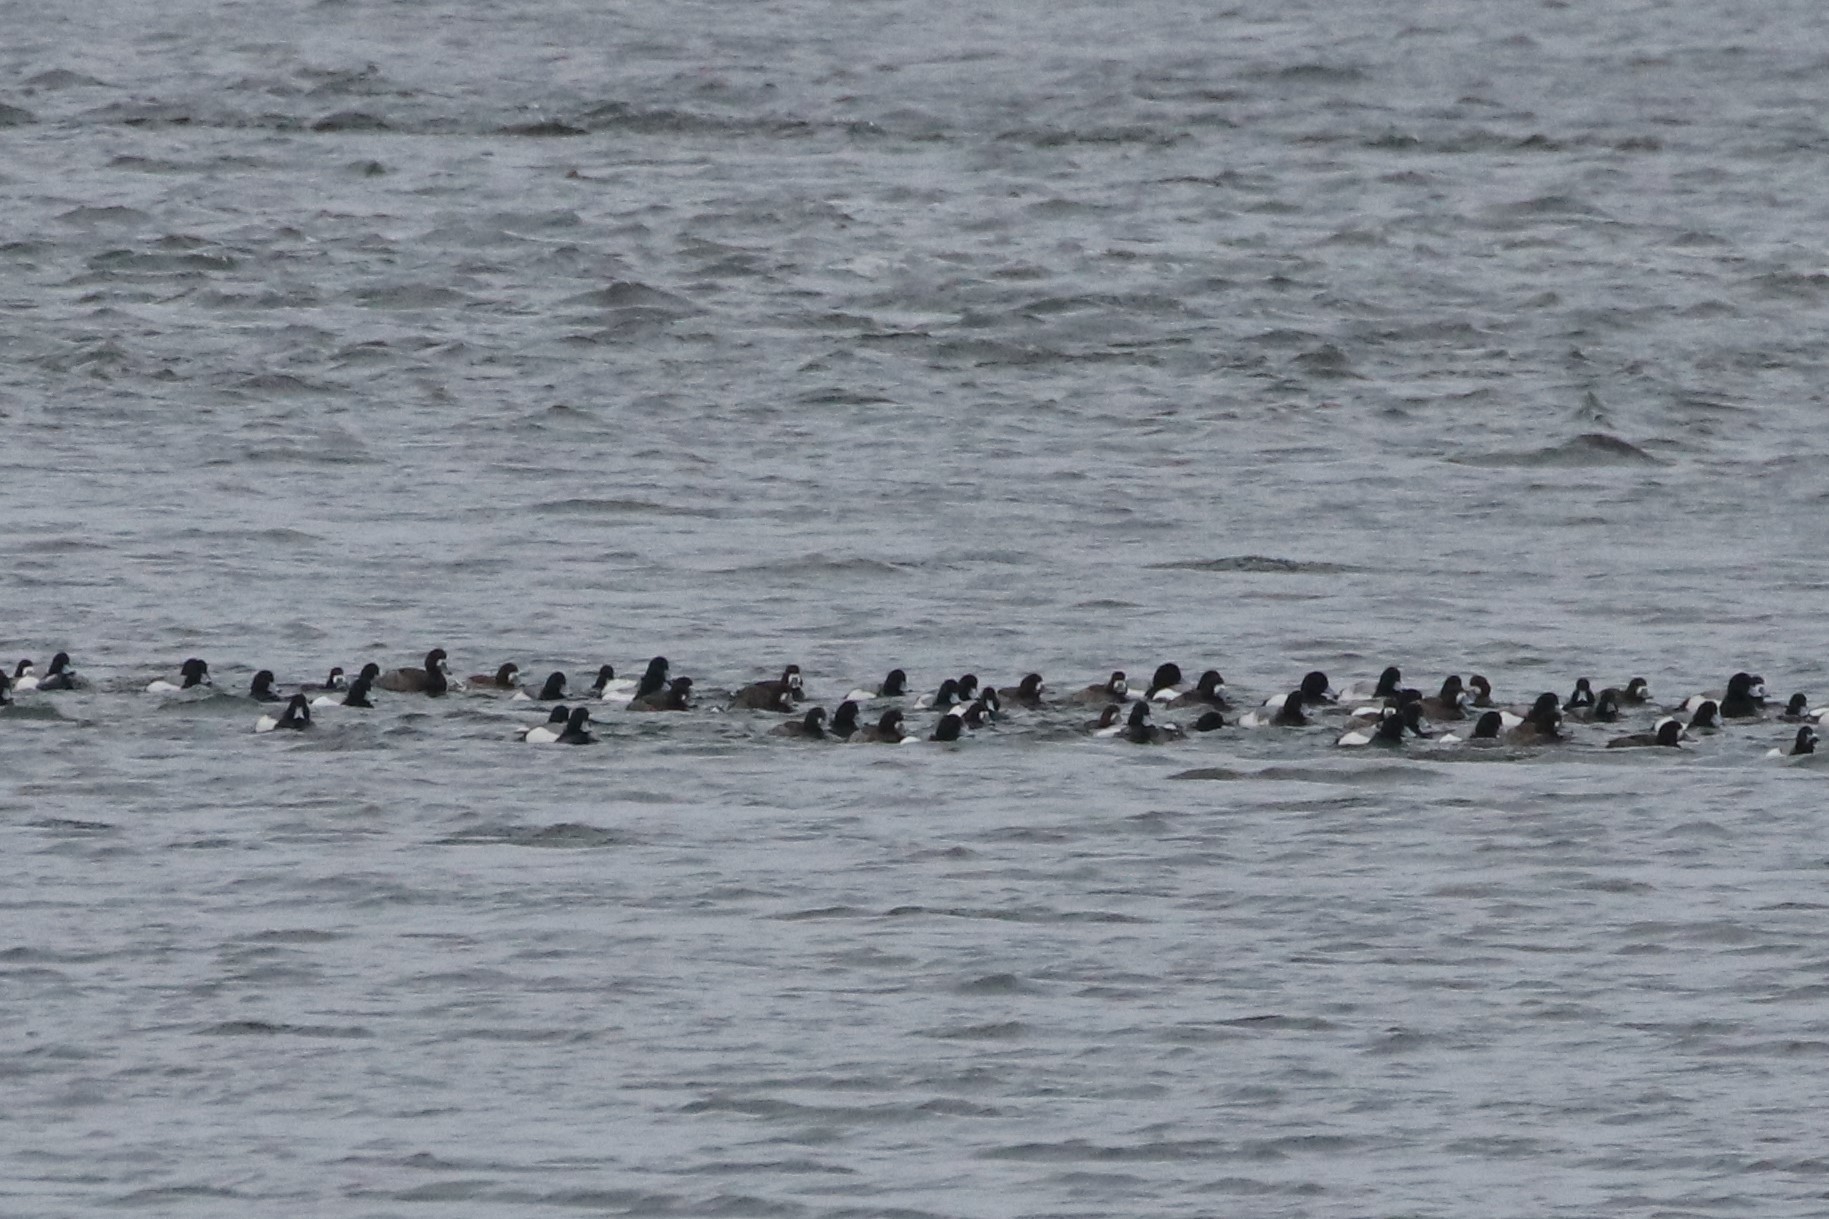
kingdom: Animalia
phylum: Chordata
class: Aves
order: Anseriformes
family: Anatidae
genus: Aythya
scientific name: Aythya marila
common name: Greater scaup
